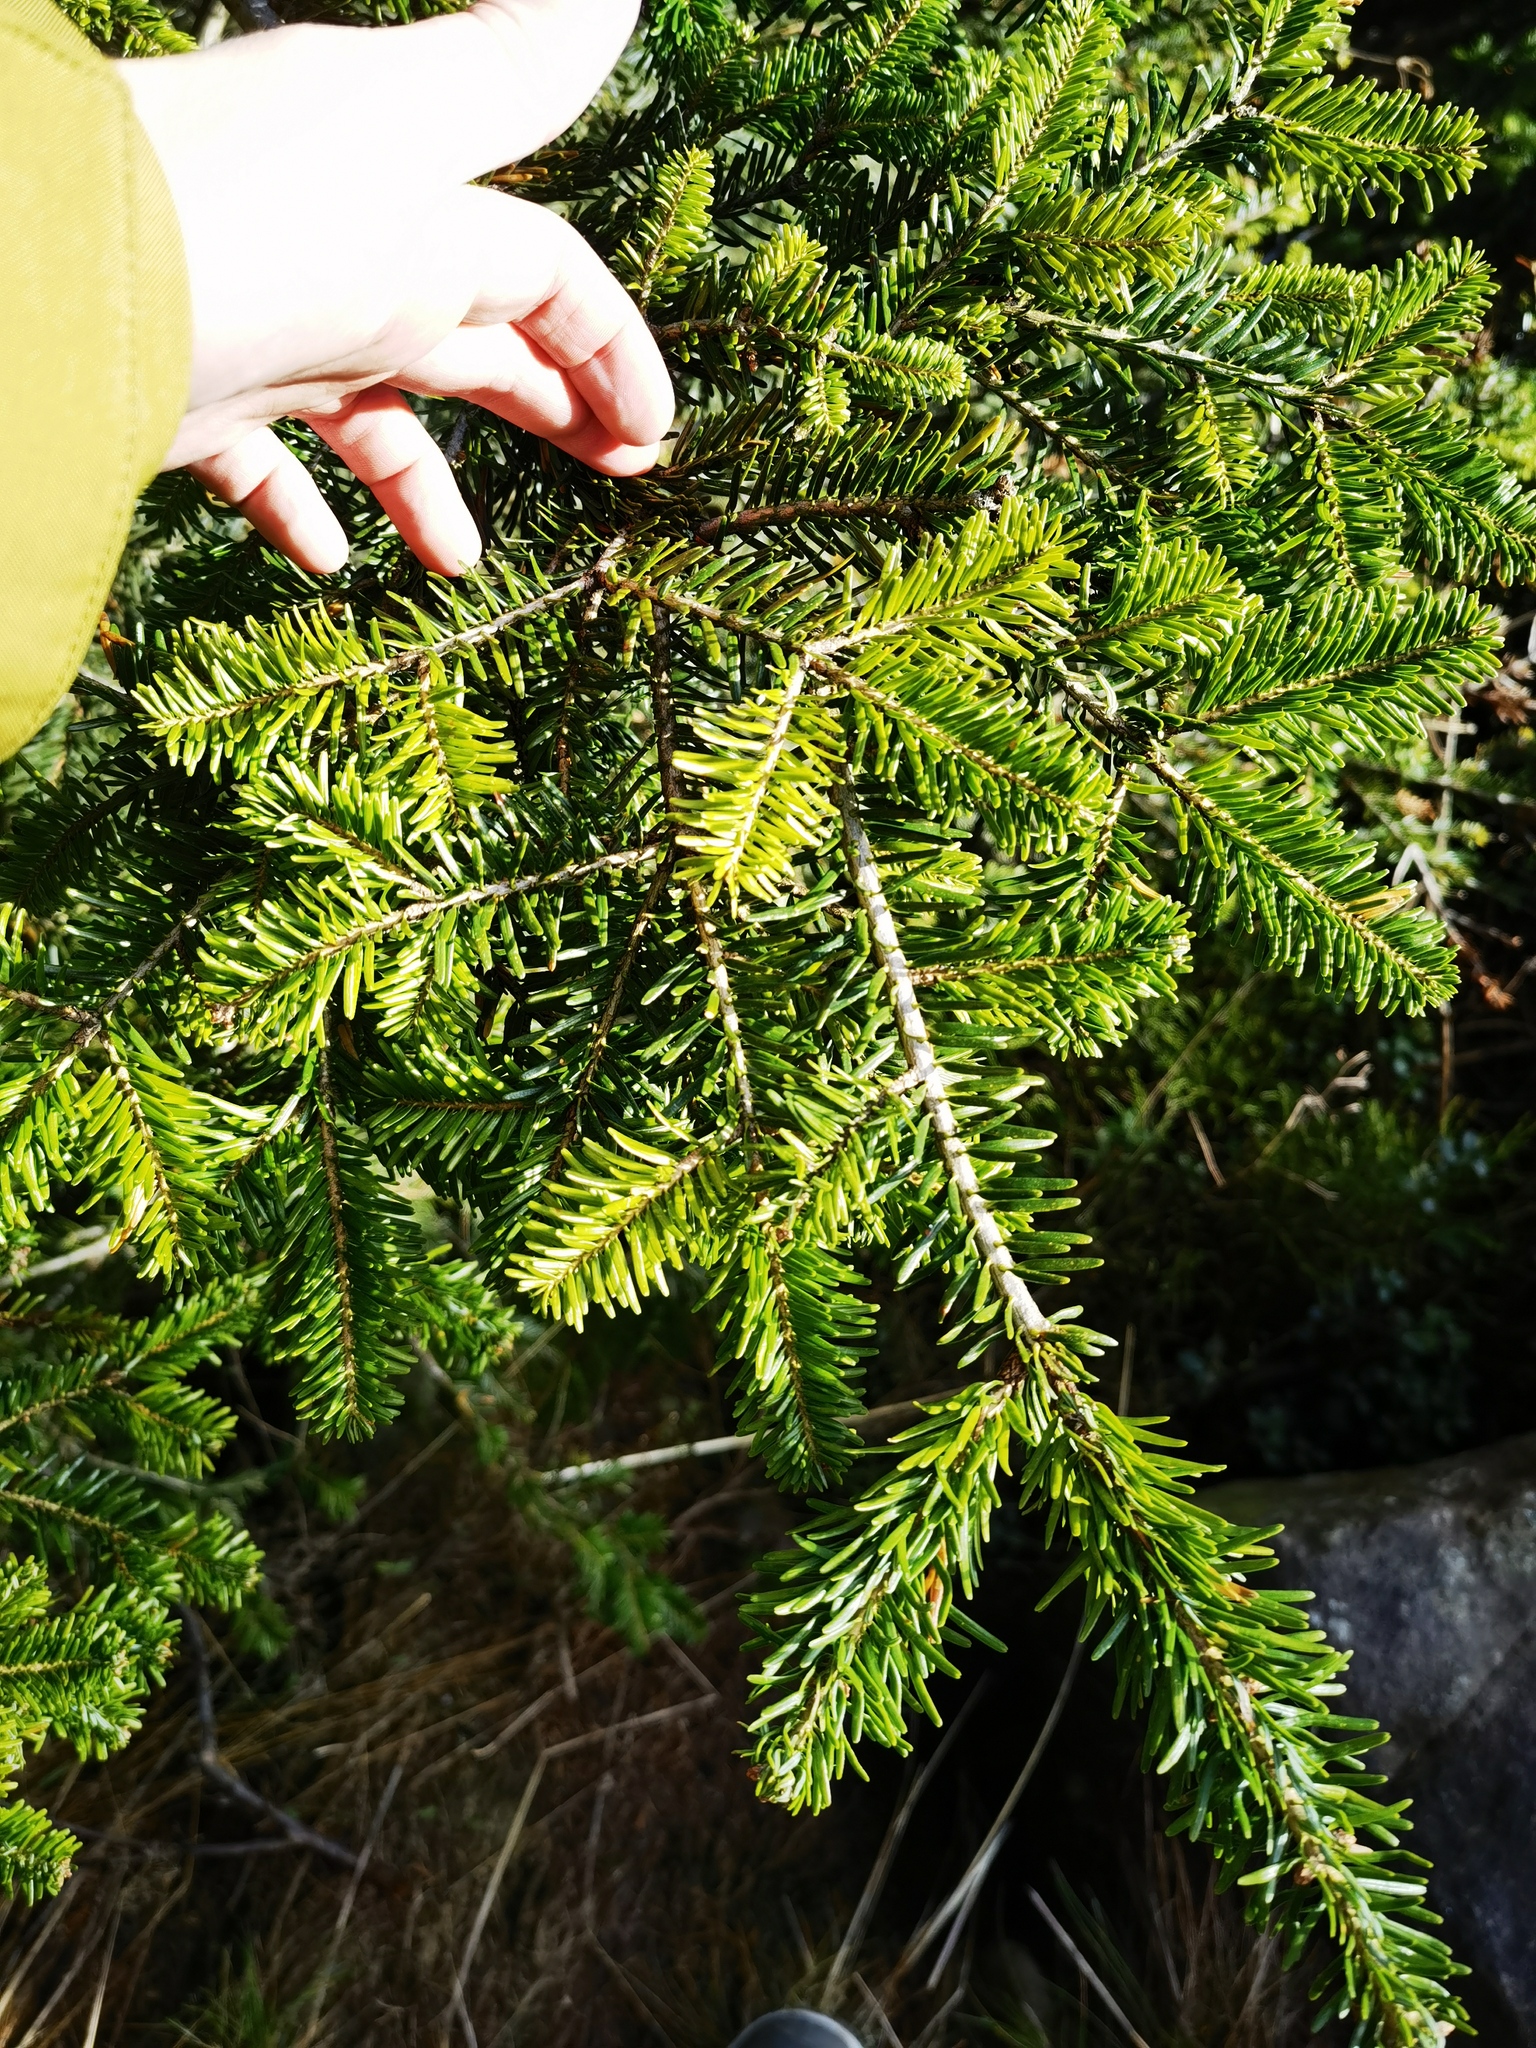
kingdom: Plantae
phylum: Tracheophyta
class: Pinopsida
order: Pinales
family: Pinaceae
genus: Abies
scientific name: Abies alba
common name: Silver fir
